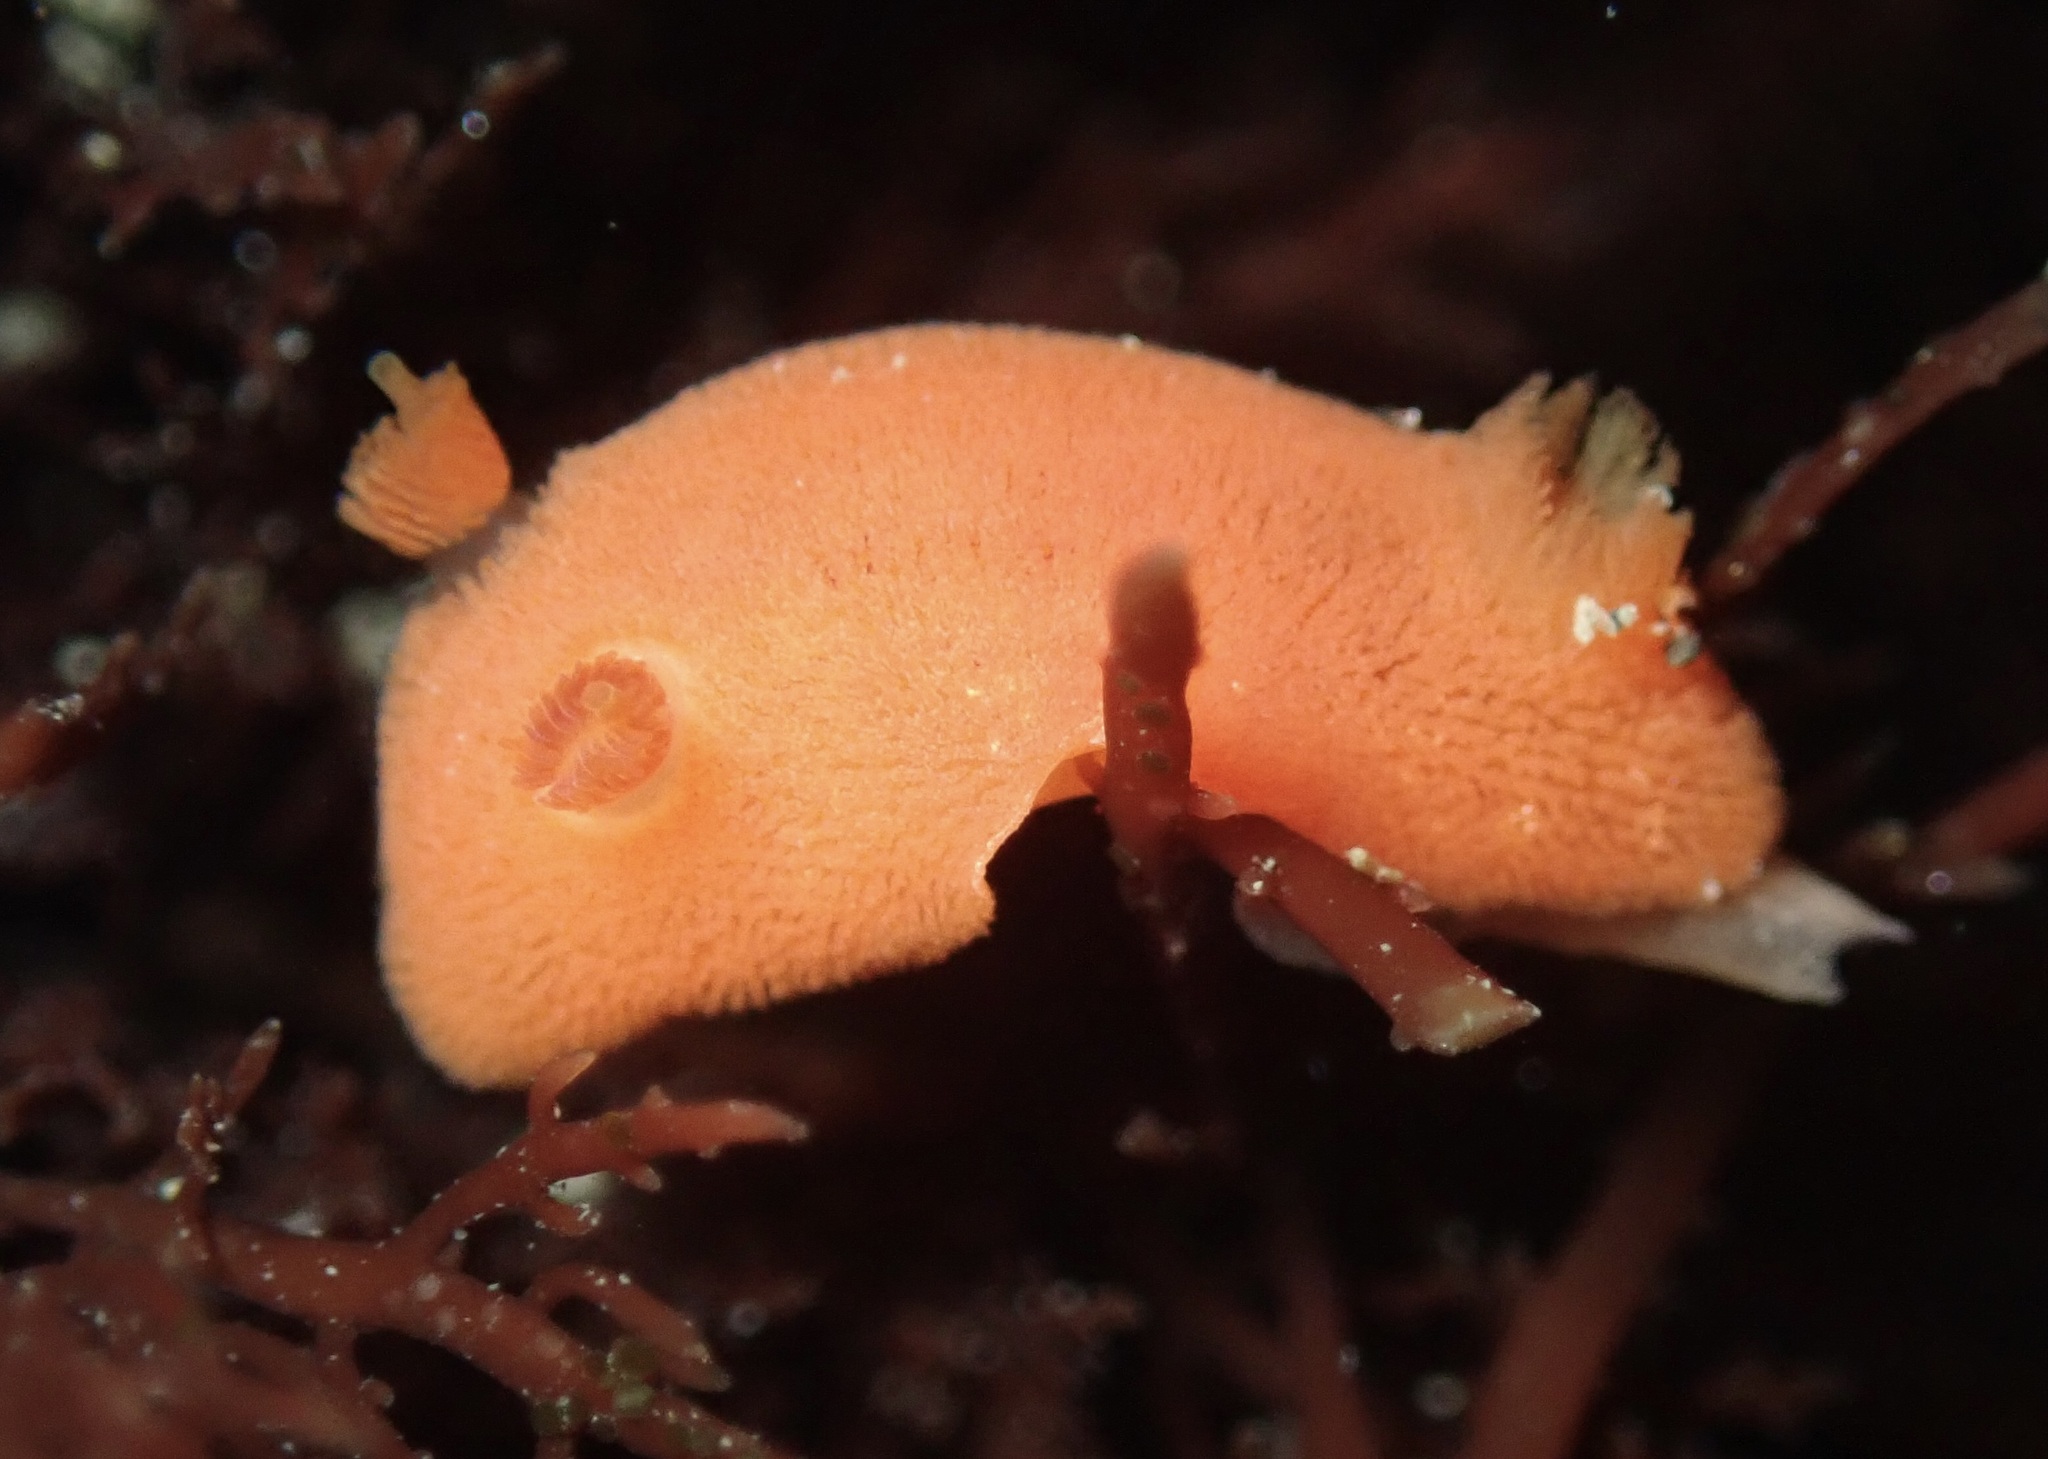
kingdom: Animalia
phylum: Mollusca
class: Gastropoda
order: Nudibranchia
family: Discodorididae
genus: Rostanga
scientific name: Rostanga pulchra
